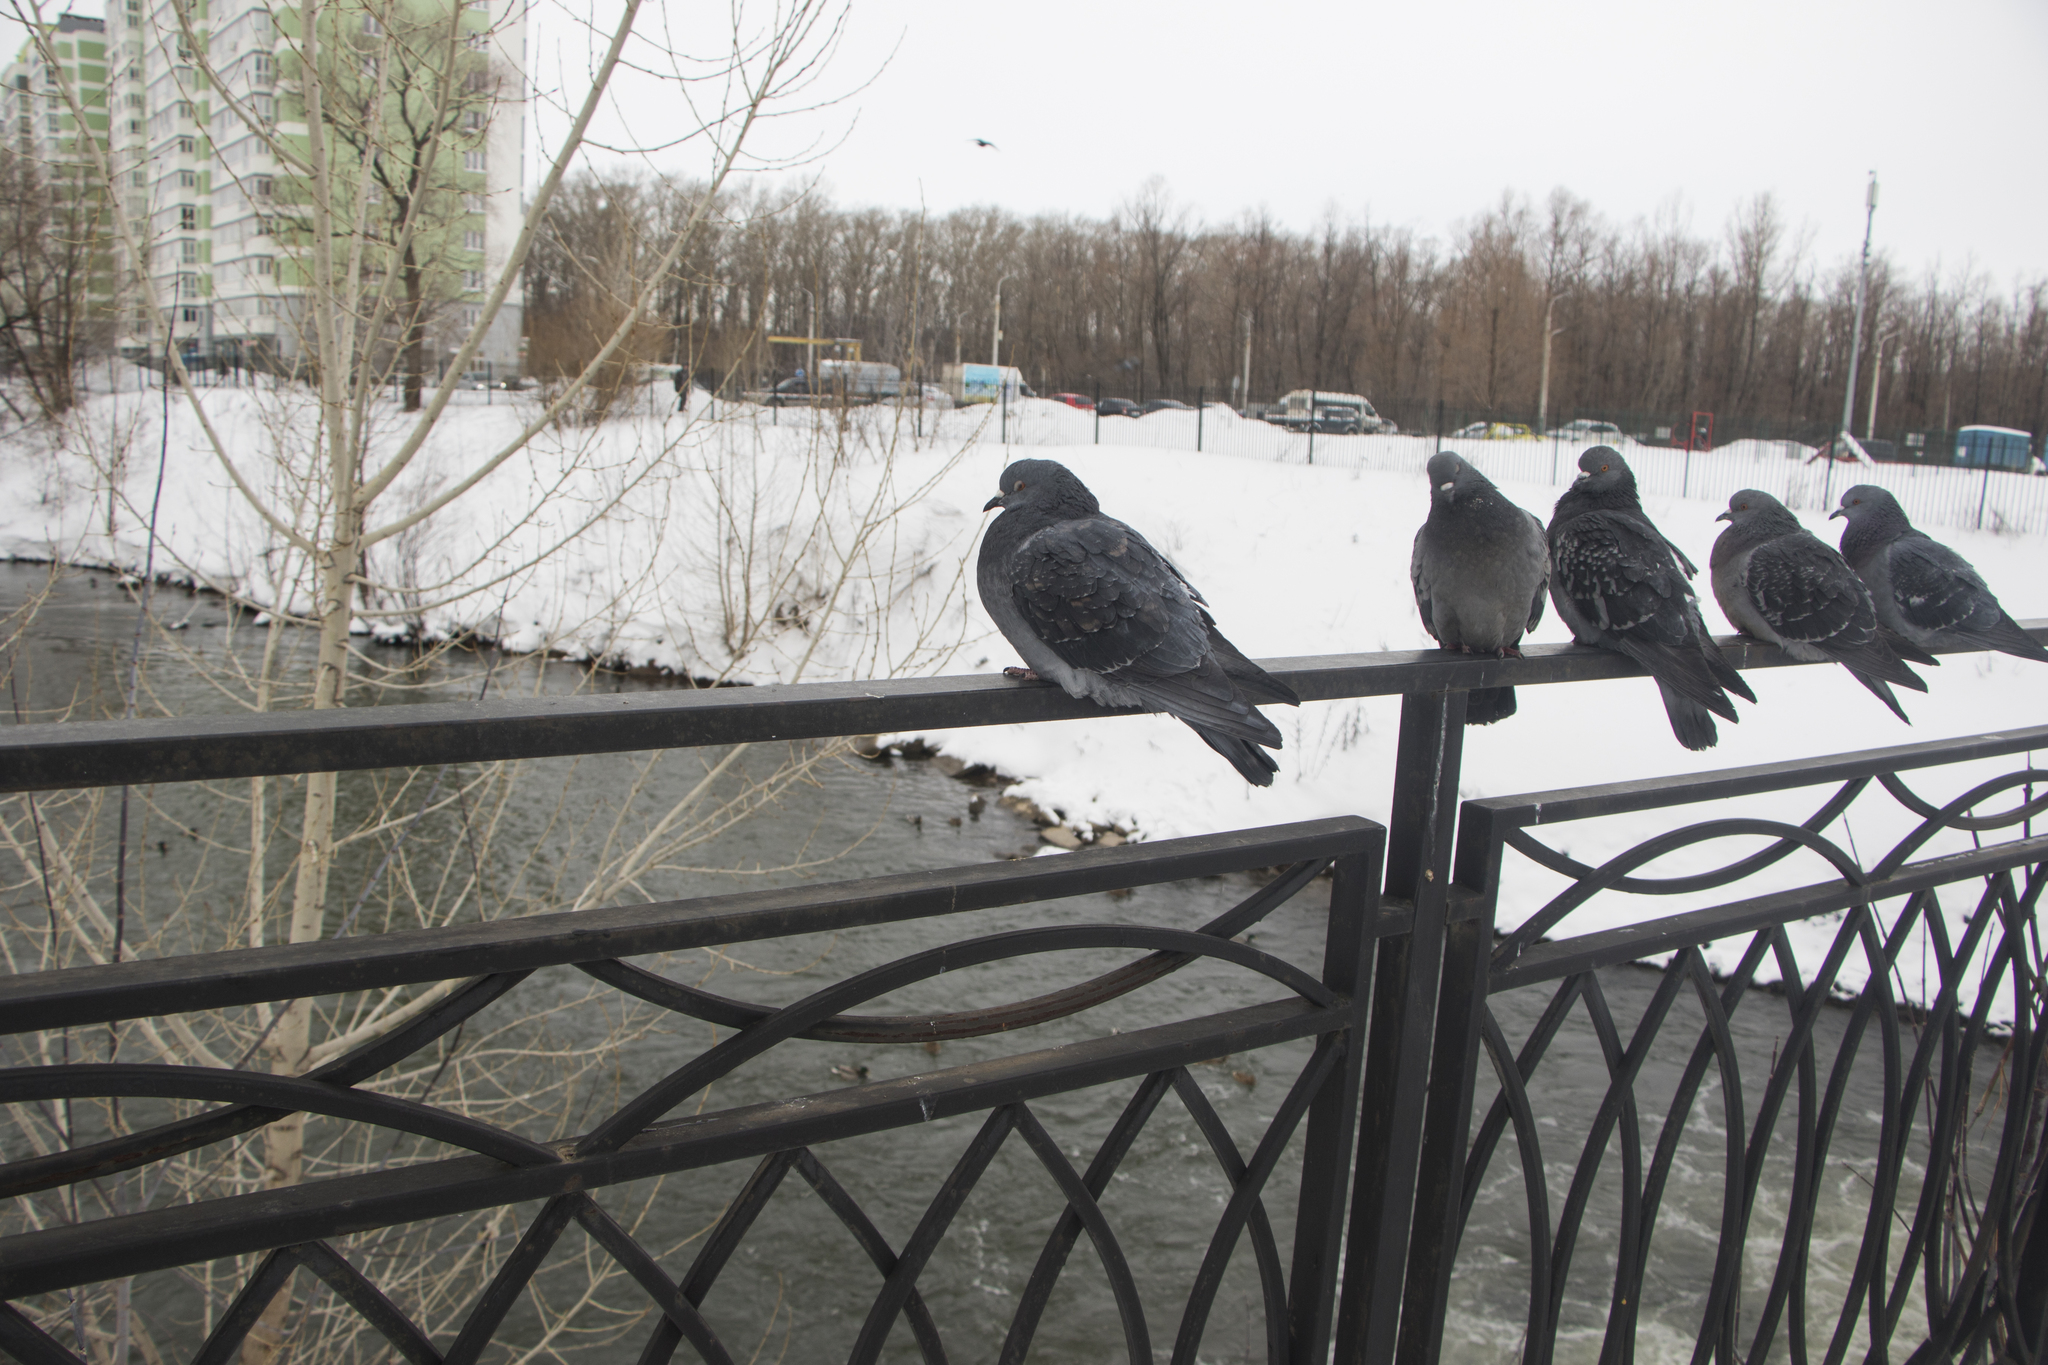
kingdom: Animalia
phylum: Chordata
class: Aves
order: Columbiformes
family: Columbidae
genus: Columba
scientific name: Columba livia
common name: Rock pigeon
